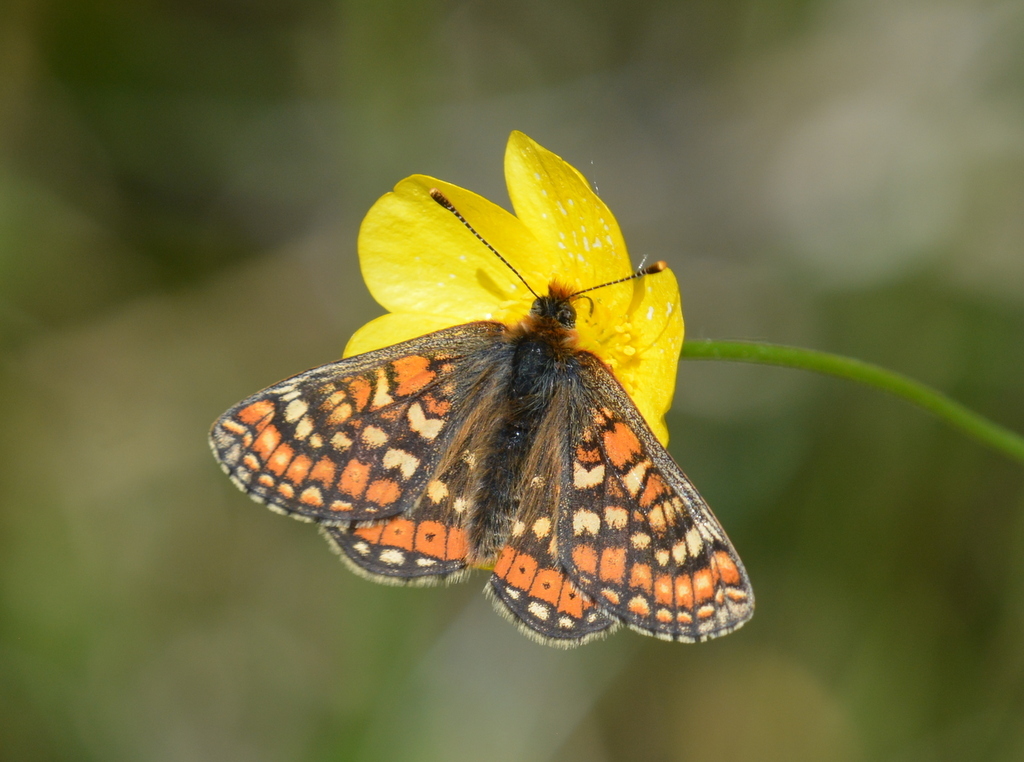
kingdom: Animalia
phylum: Arthropoda
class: Insecta
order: Lepidoptera
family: Nymphalidae
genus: Euphydryas
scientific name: Euphydryas aurinia
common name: Marsh fritillary
